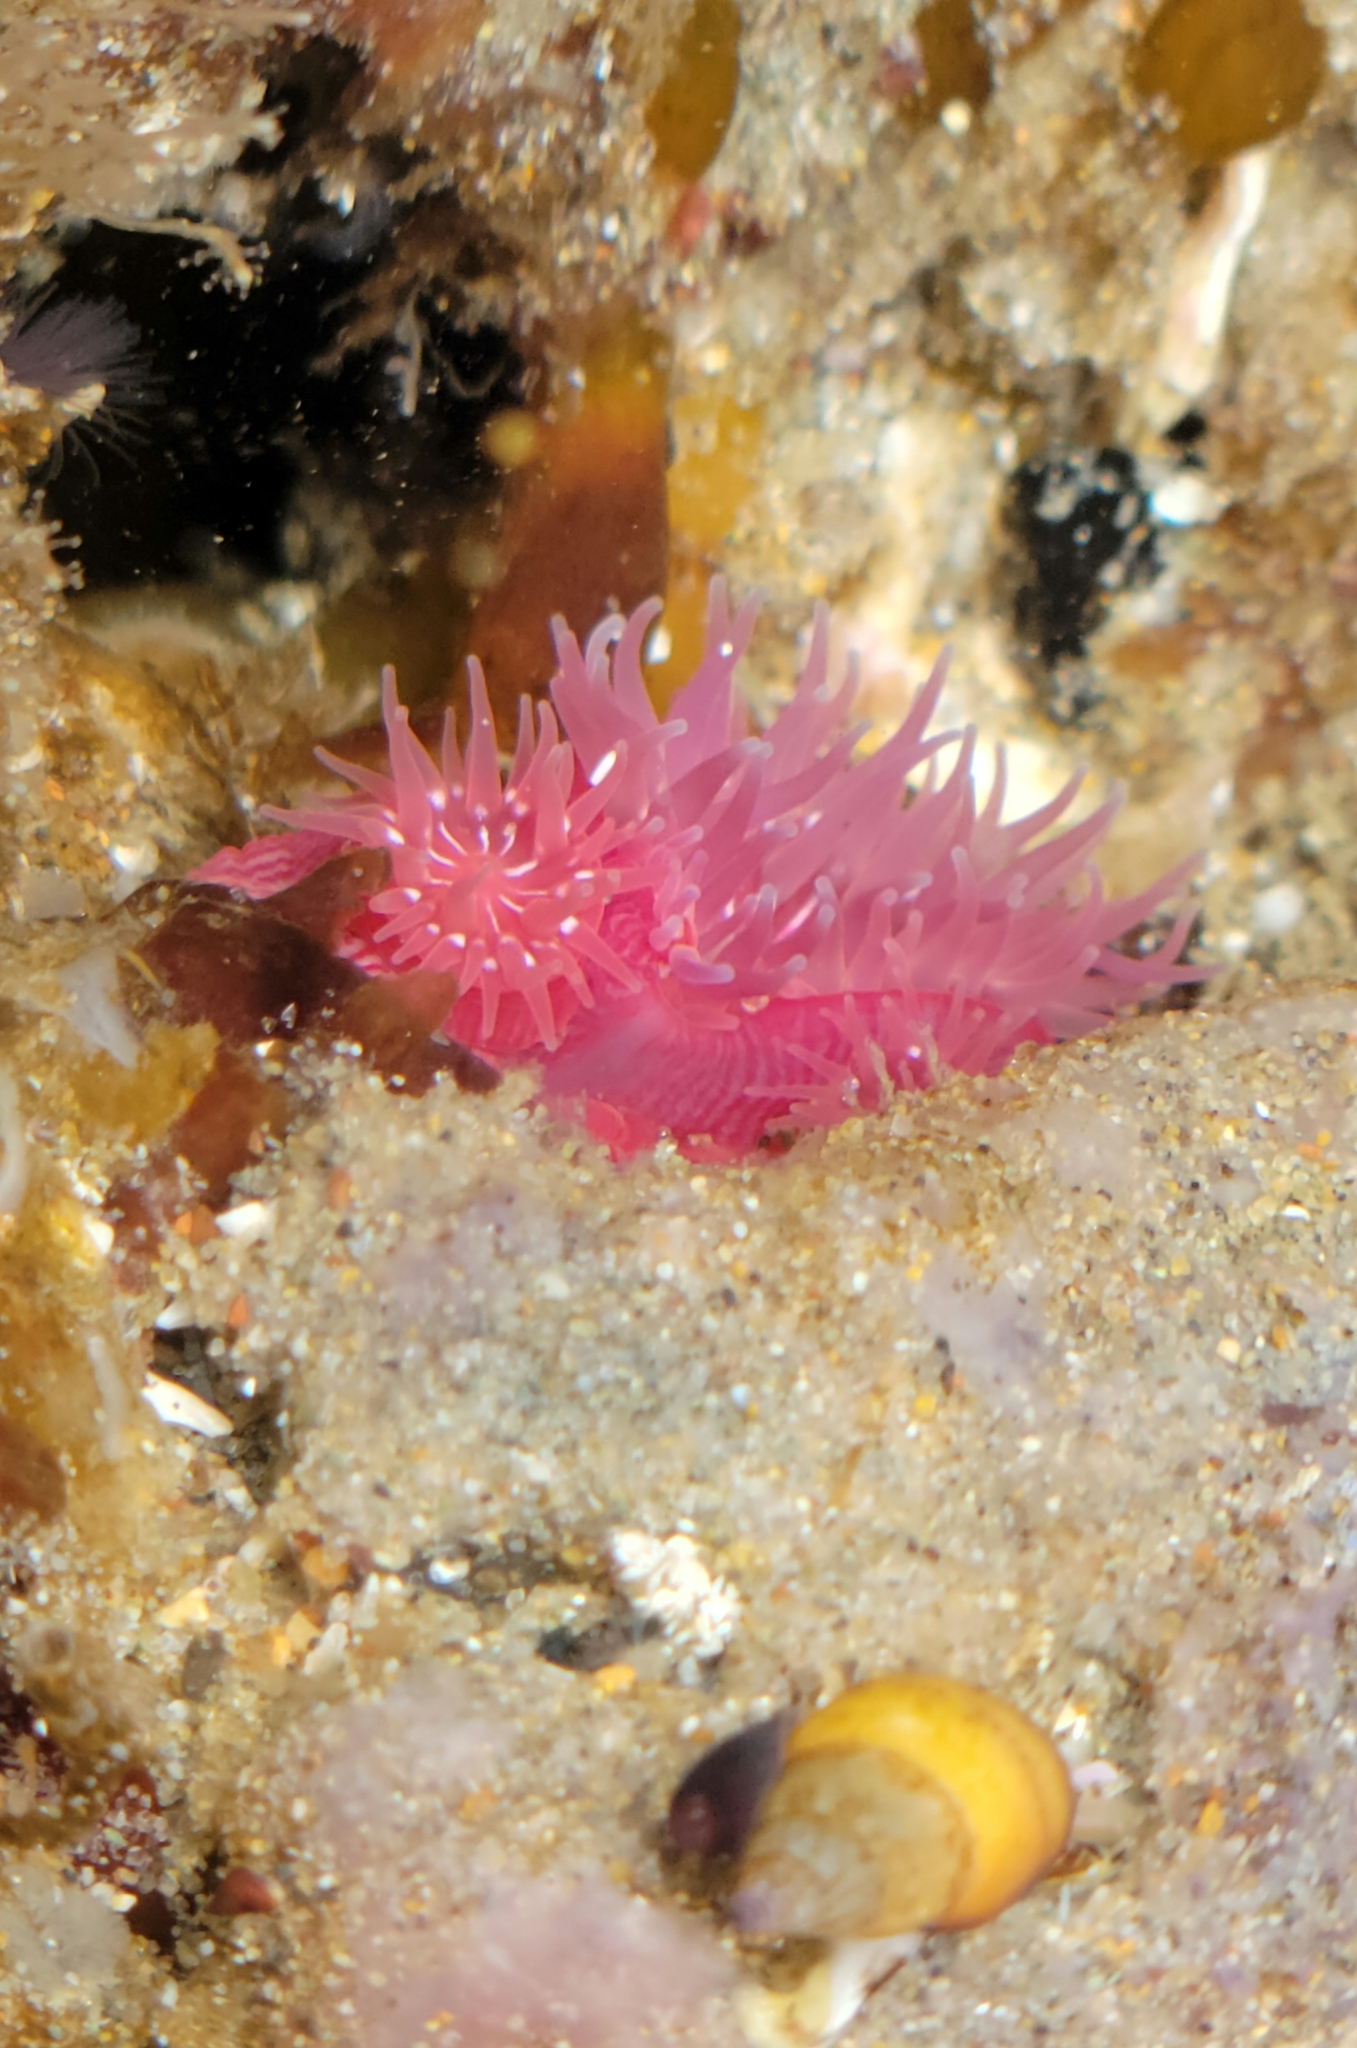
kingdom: Animalia
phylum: Cnidaria
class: Anthozoa
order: Actiniaria
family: Actiniidae
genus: Epiactis
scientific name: Epiactis prolifera
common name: Brooding anemone
